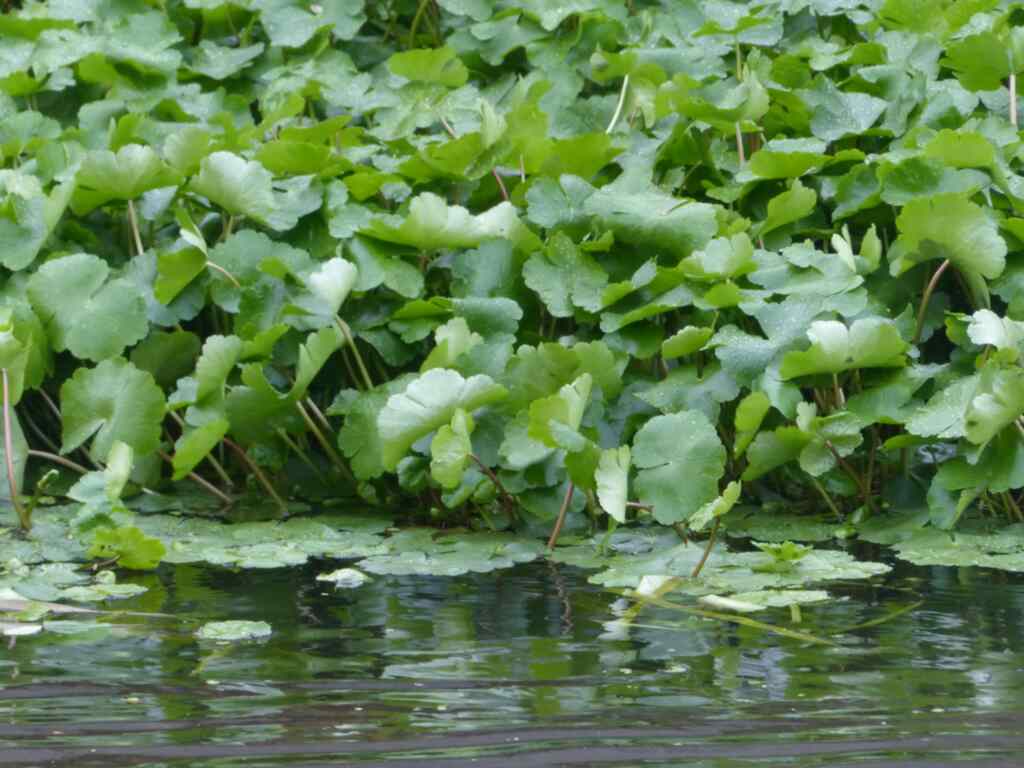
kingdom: Plantae
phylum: Tracheophyta
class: Magnoliopsida
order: Apiales
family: Araliaceae
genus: Hydrocotyle
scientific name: Hydrocotyle ranunculoides
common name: Floating pennywort
